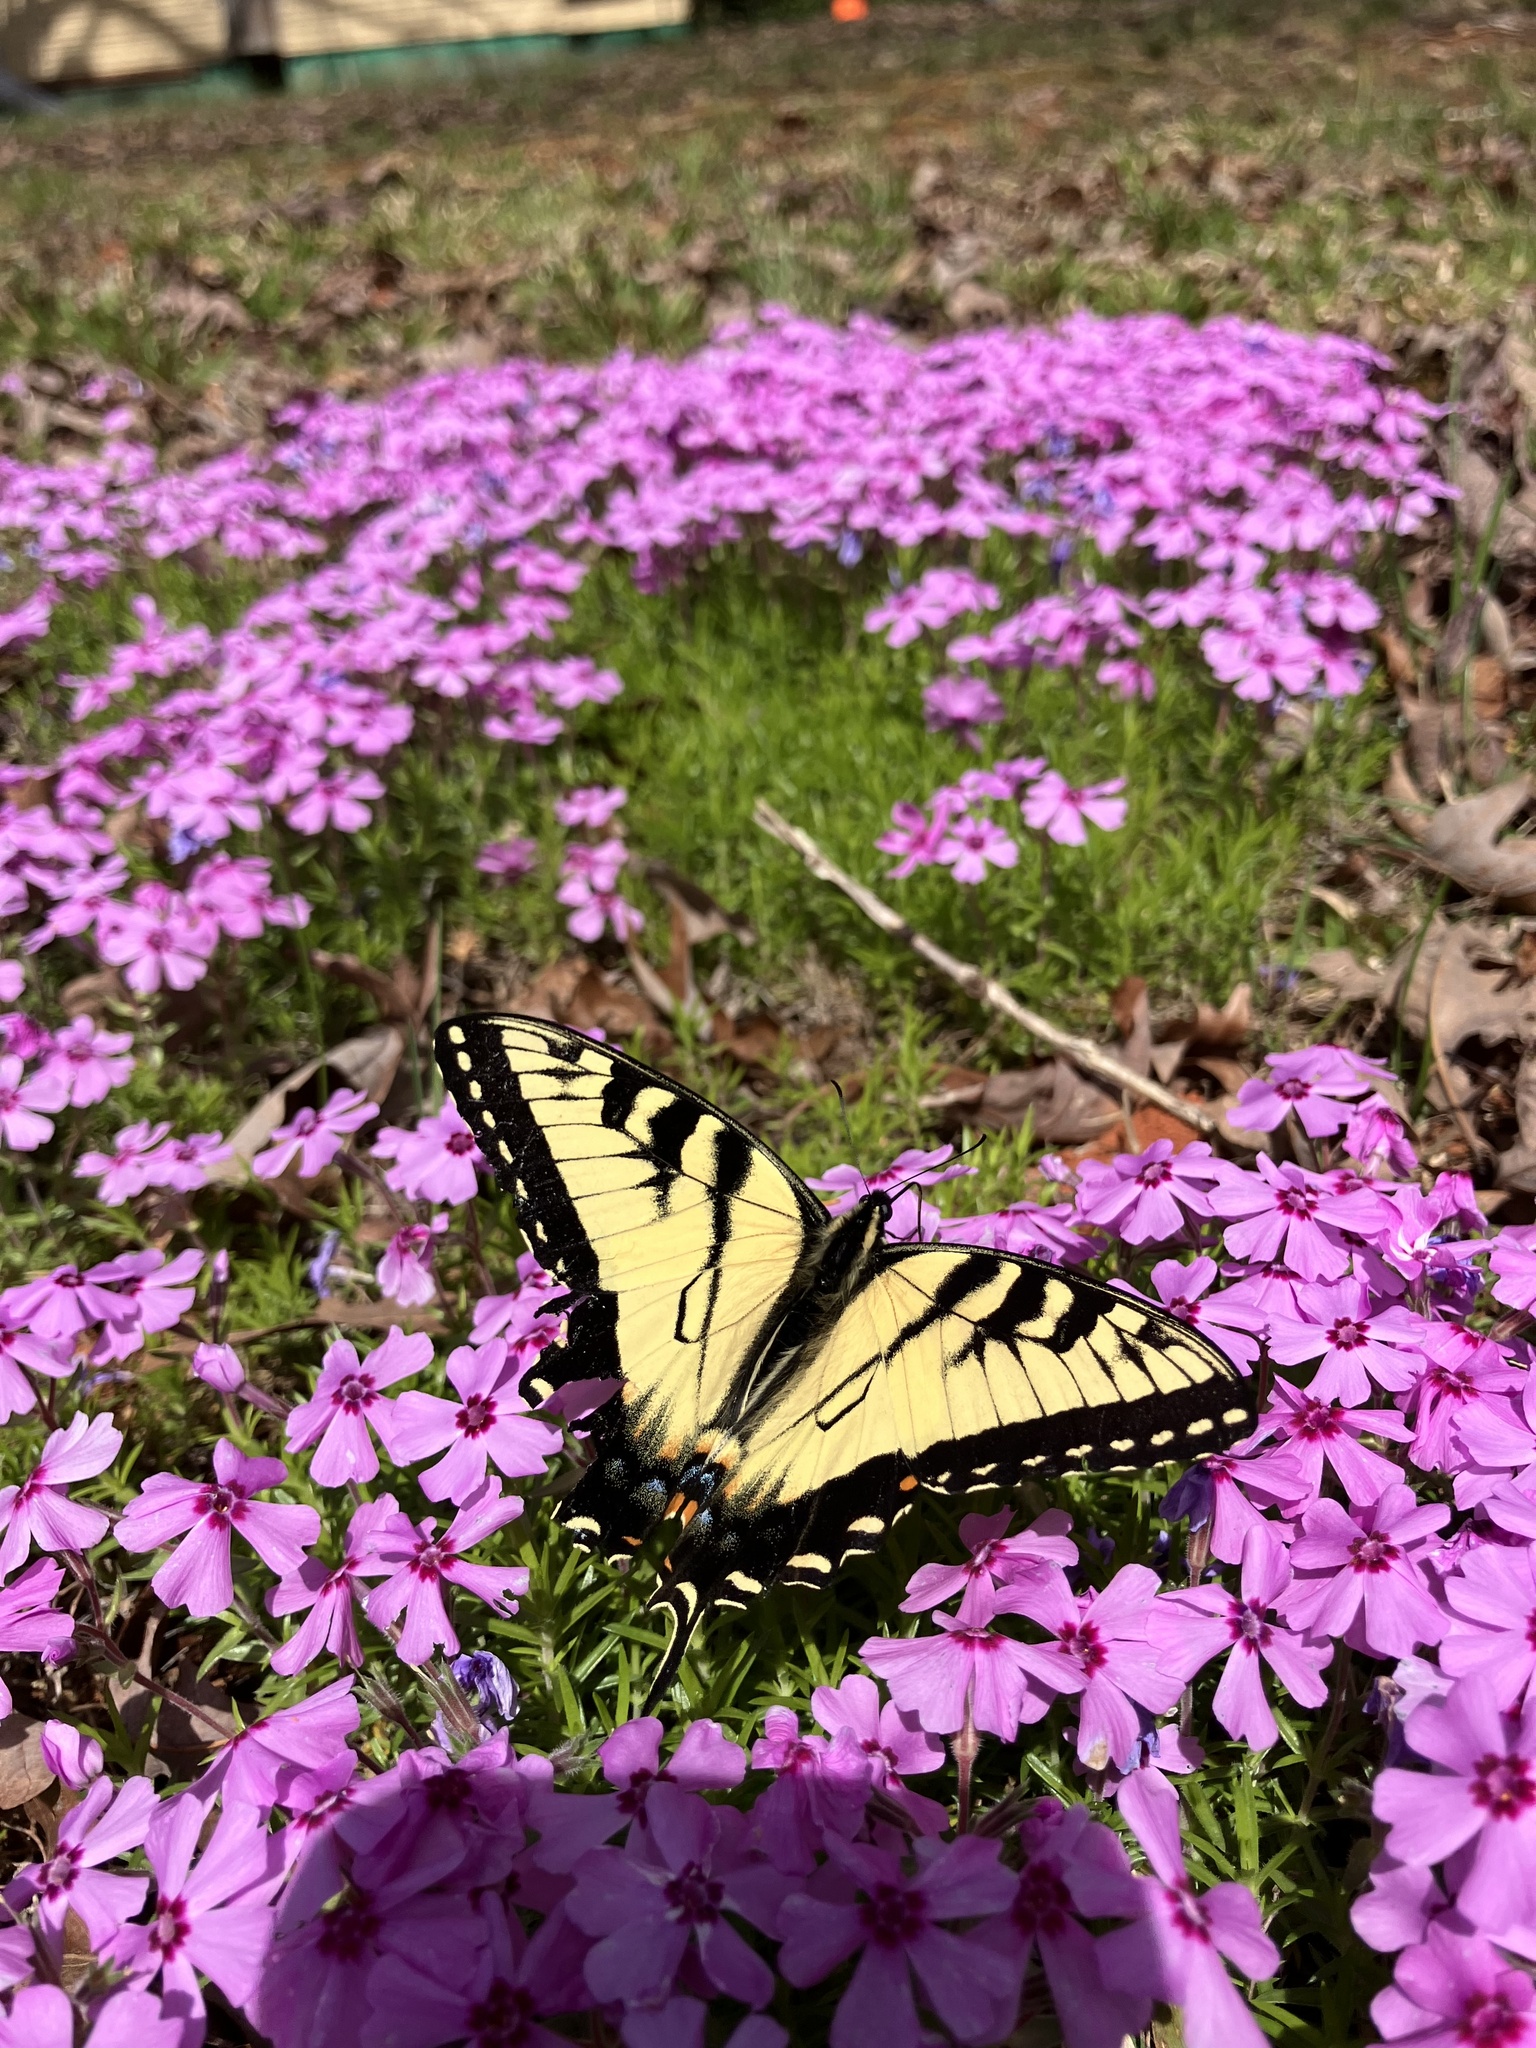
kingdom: Animalia
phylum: Arthropoda
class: Insecta
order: Lepidoptera
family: Papilionidae
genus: Papilio
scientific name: Papilio glaucus
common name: Tiger swallowtail
